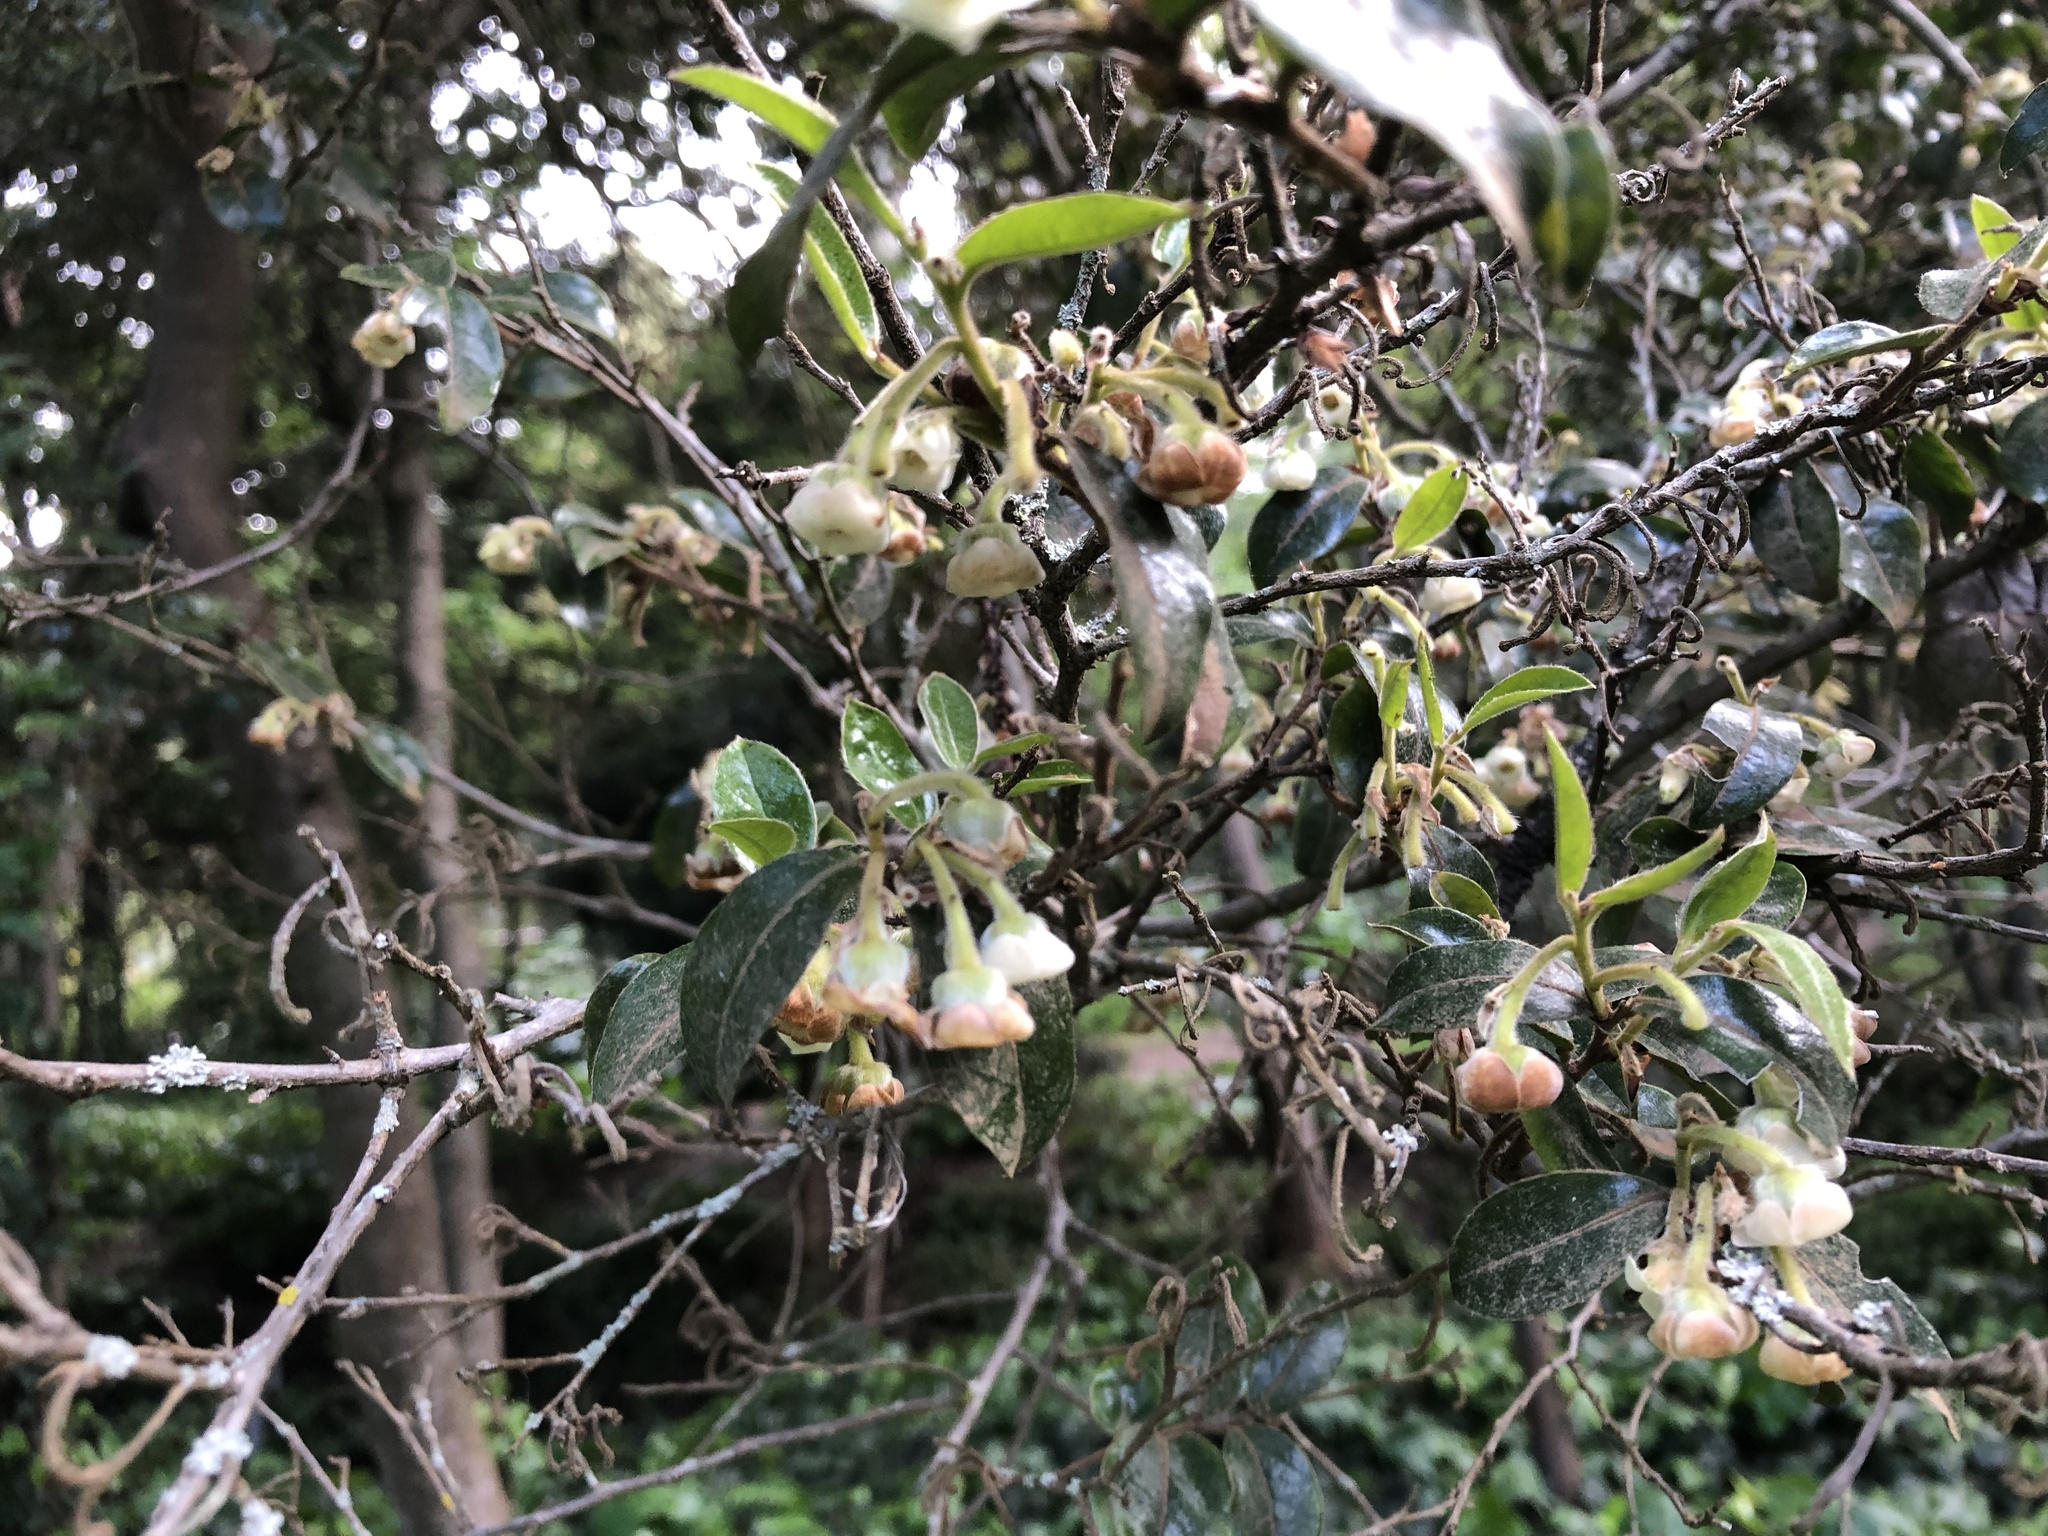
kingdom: Plantae
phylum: Tracheophyta
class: Magnoliopsida
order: Ericales
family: Ebenaceae
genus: Diospyros
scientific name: Diospyros whyteana
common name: Bladder-nut
